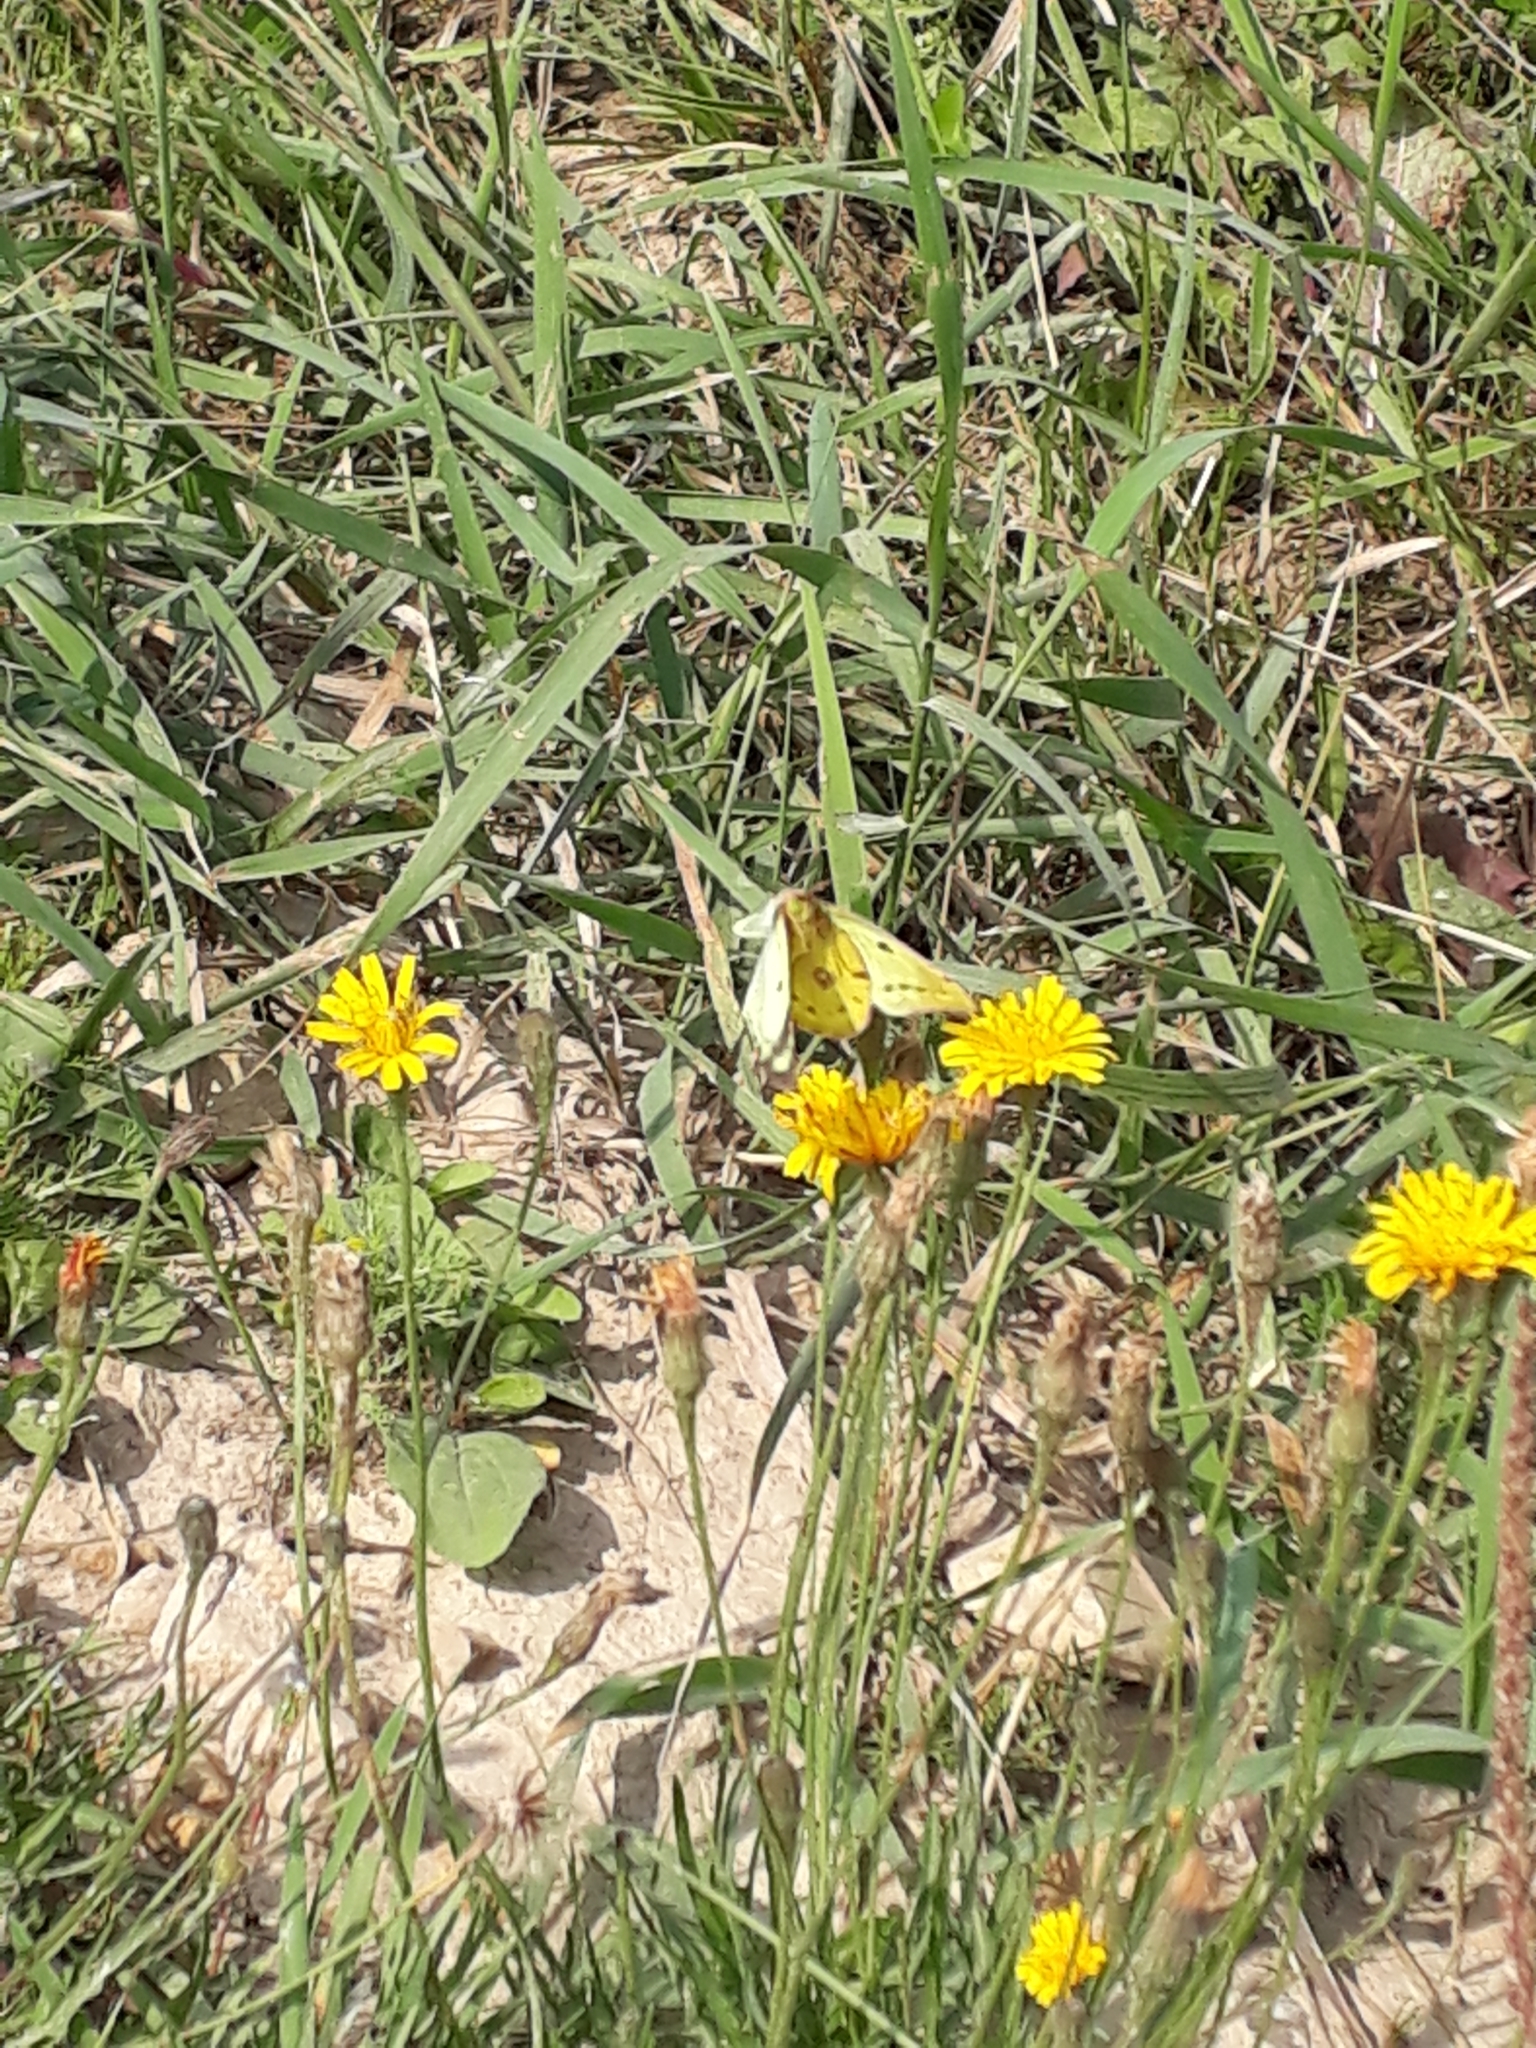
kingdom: Animalia
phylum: Arthropoda
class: Insecta
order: Lepidoptera
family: Pieridae
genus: Colias
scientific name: Colias hyale
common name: Pale clouded yellow
